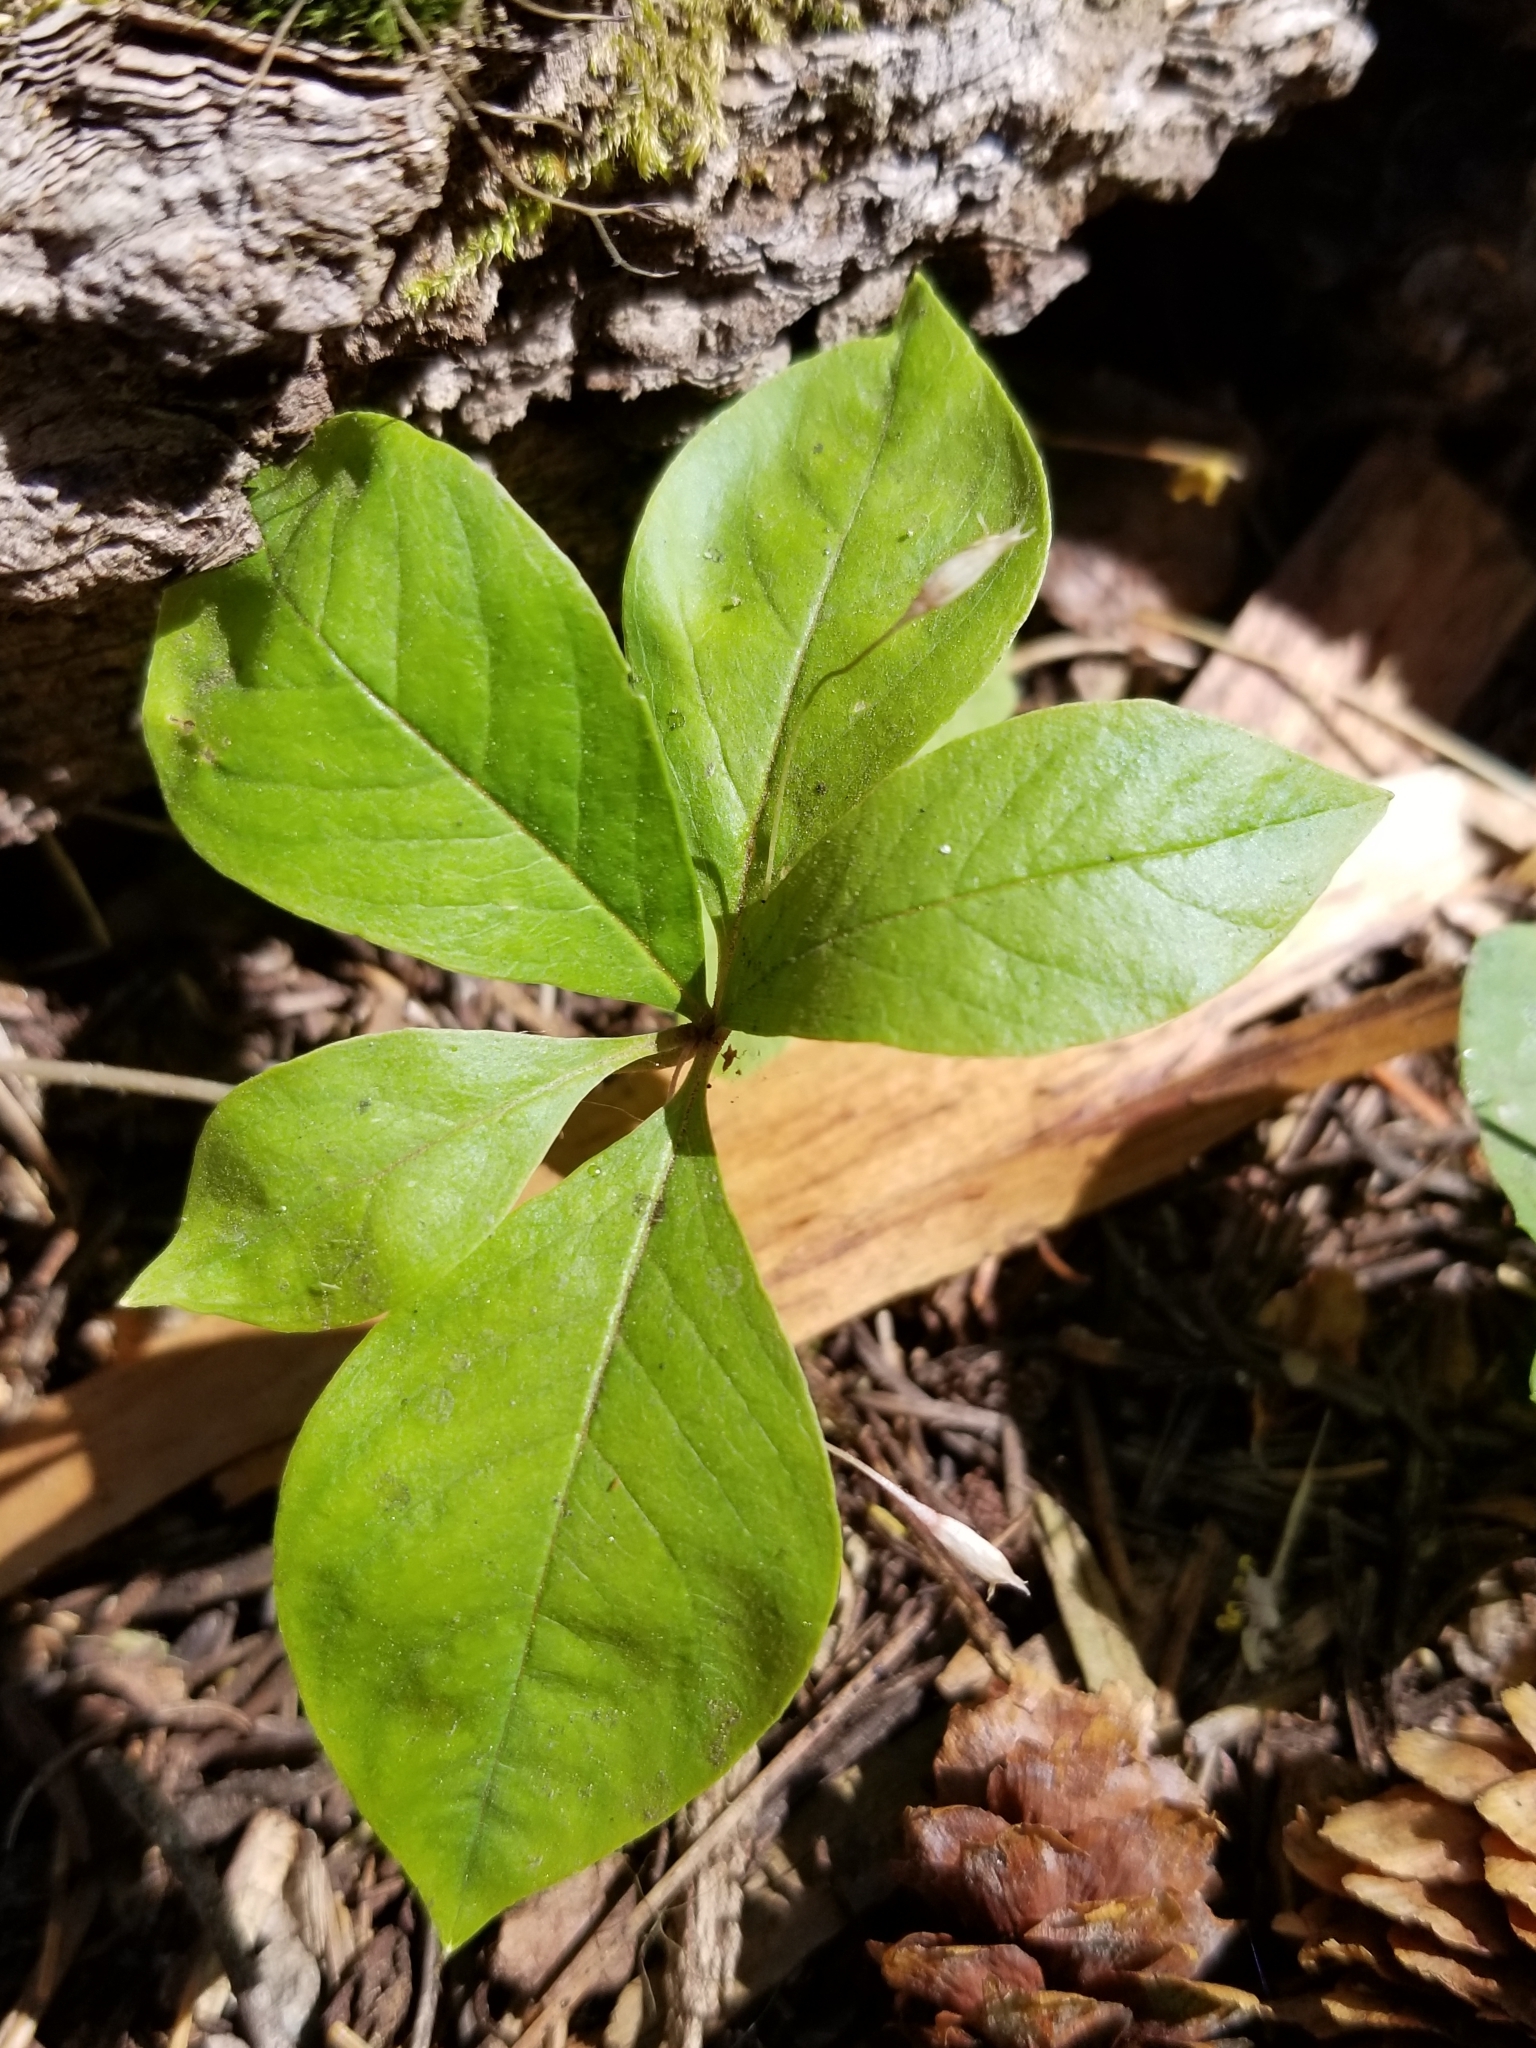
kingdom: Plantae
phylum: Tracheophyta
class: Magnoliopsida
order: Ericales
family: Primulaceae
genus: Lysimachia
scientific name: Lysimachia latifolia
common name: Pacific starflower
